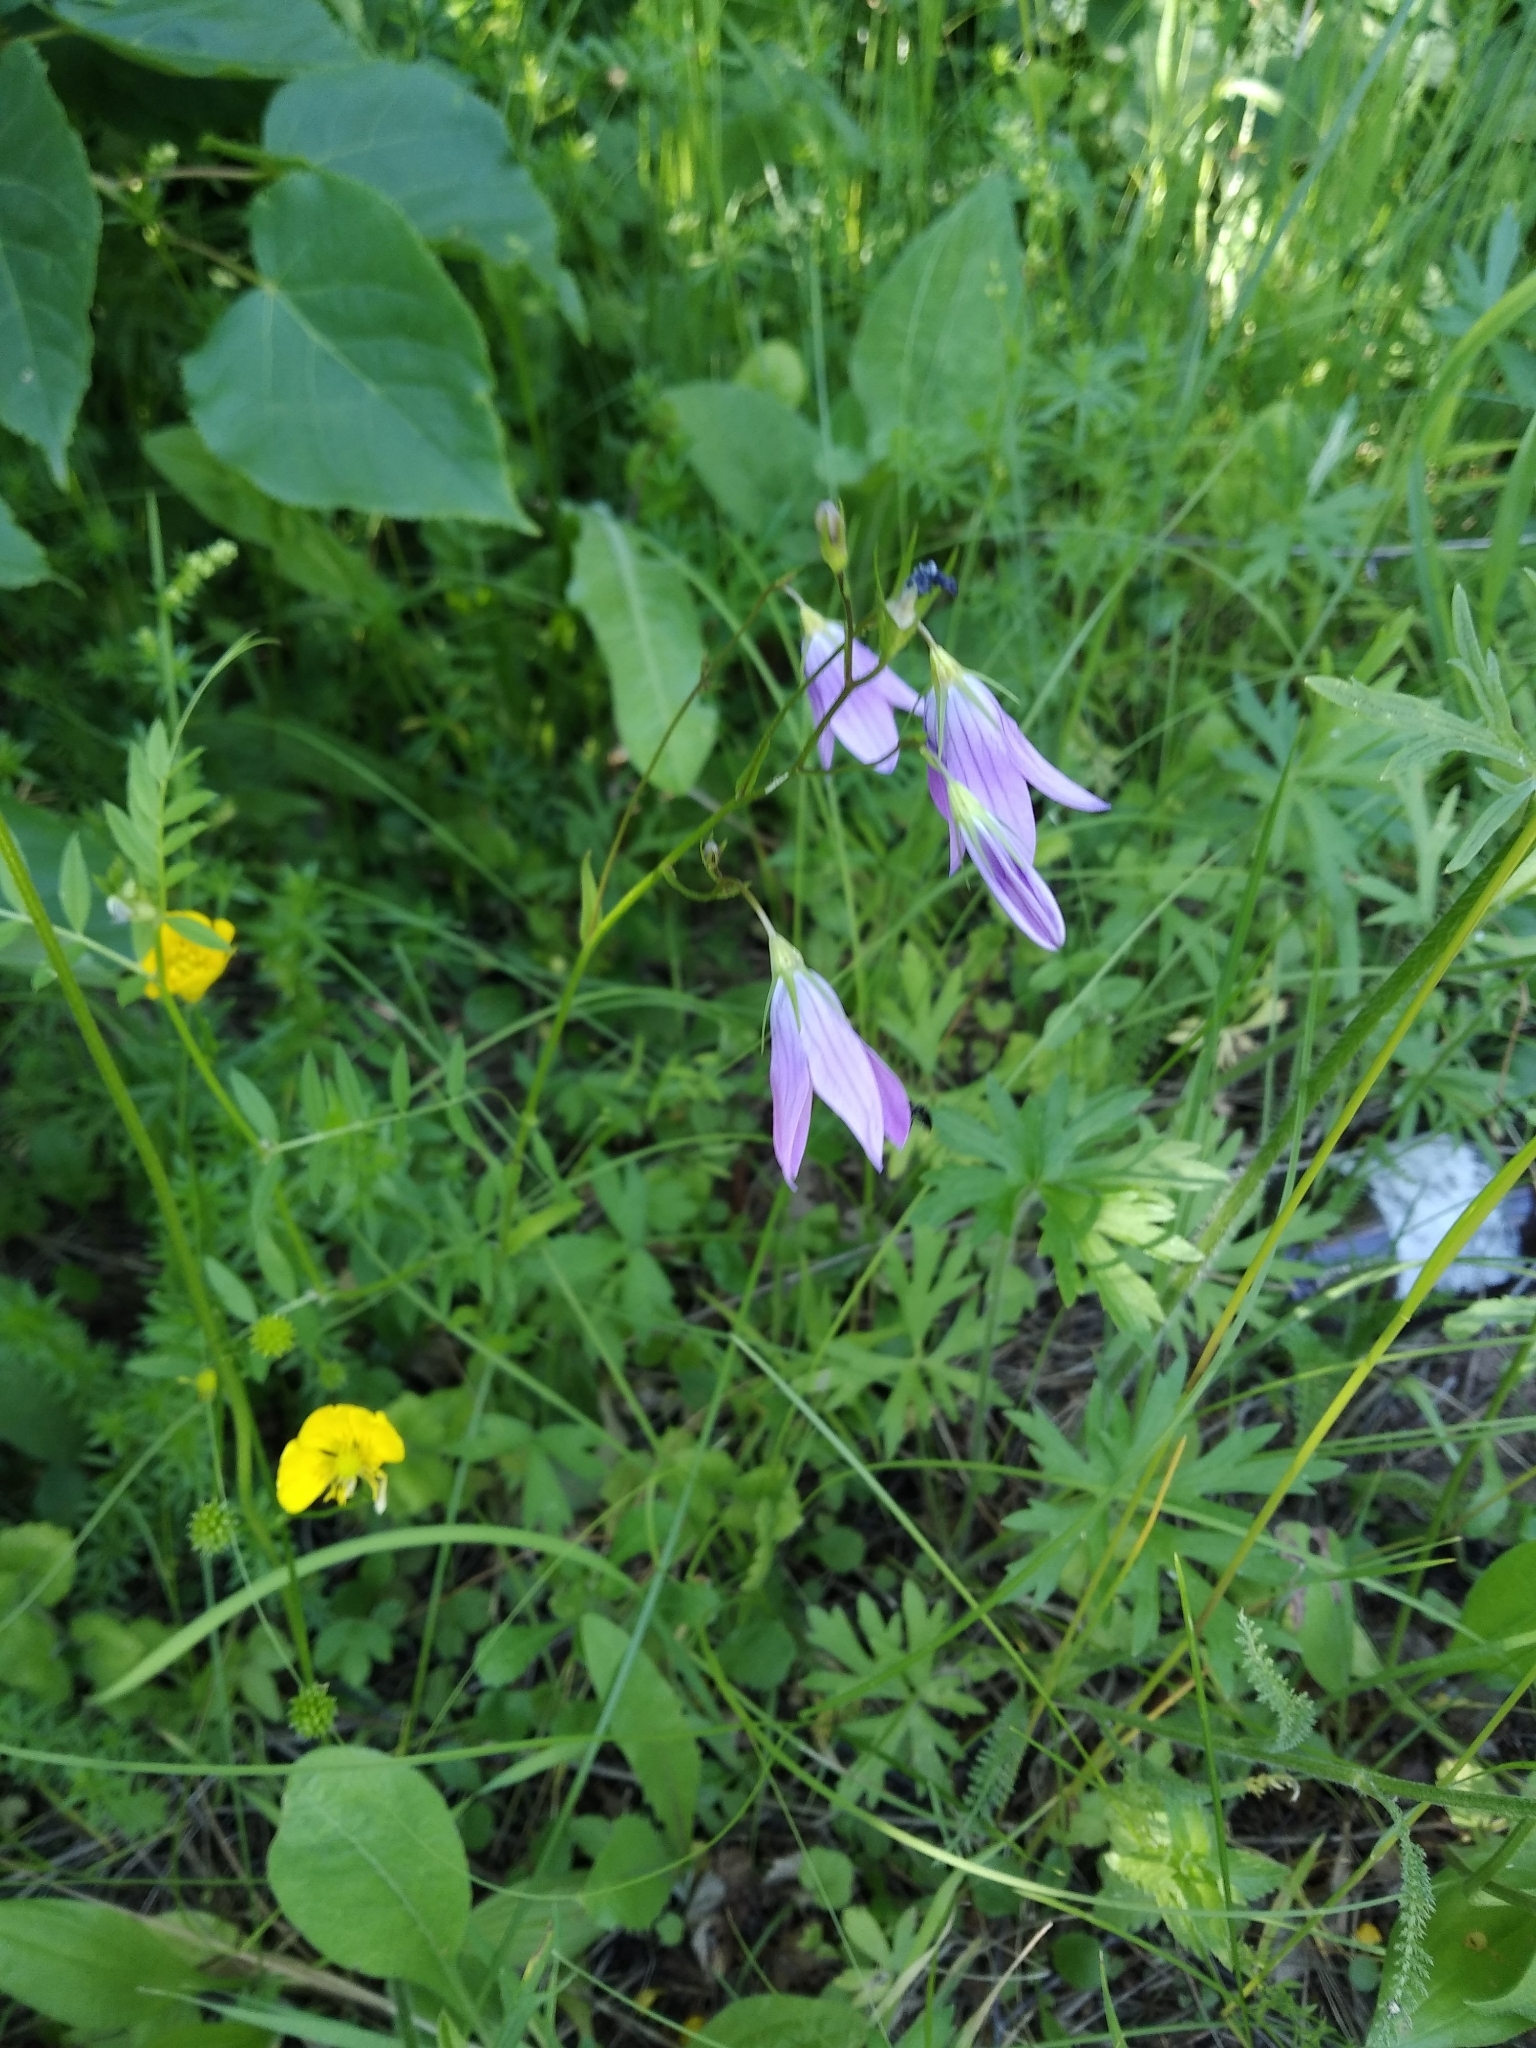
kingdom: Plantae
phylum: Tracheophyta
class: Magnoliopsida
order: Asterales
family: Campanulaceae
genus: Campanula
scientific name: Campanula patula
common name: Spreading bellflower
